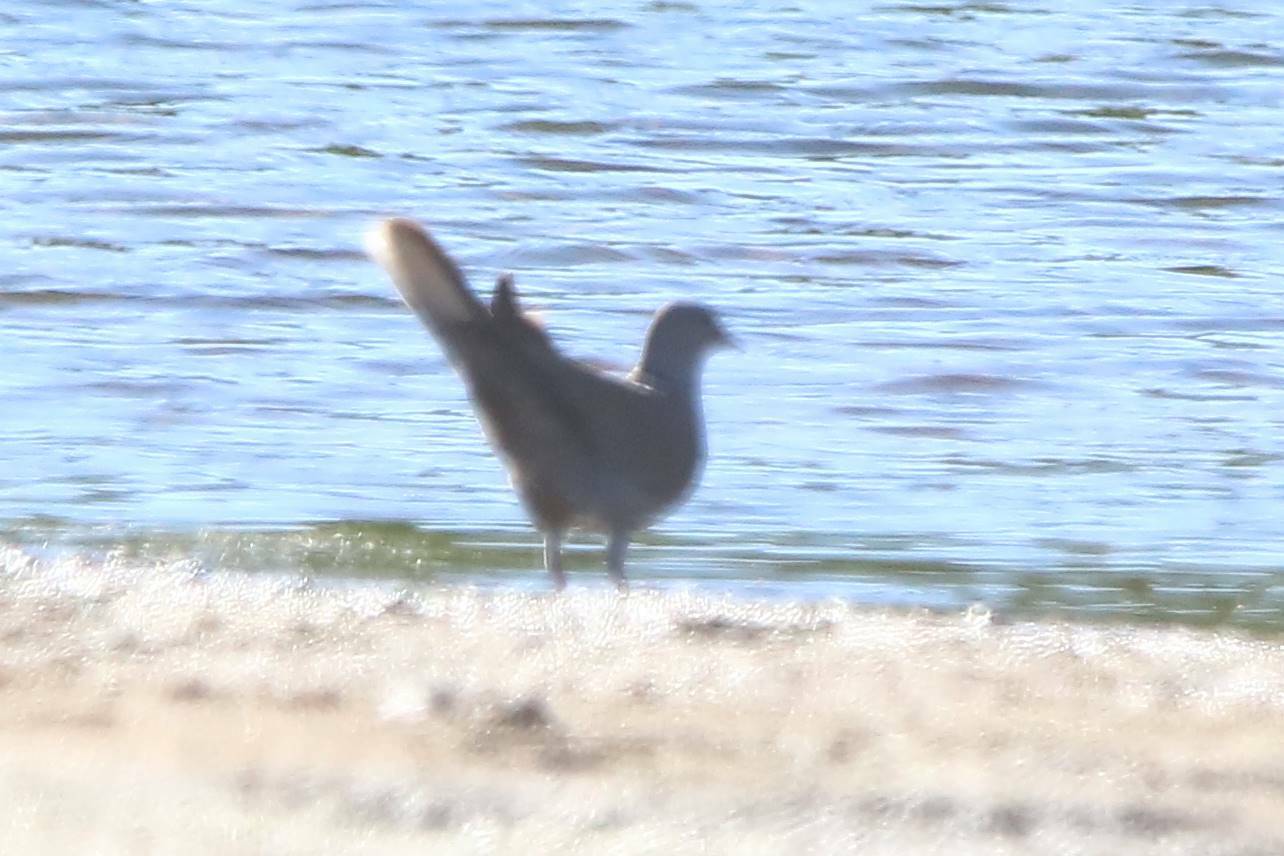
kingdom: Animalia
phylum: Chordata
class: Aves
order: Columbiformes
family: Columbidae
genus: Streptopelia
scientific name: Streptopelia decaocto
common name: Eurasian collared dove
